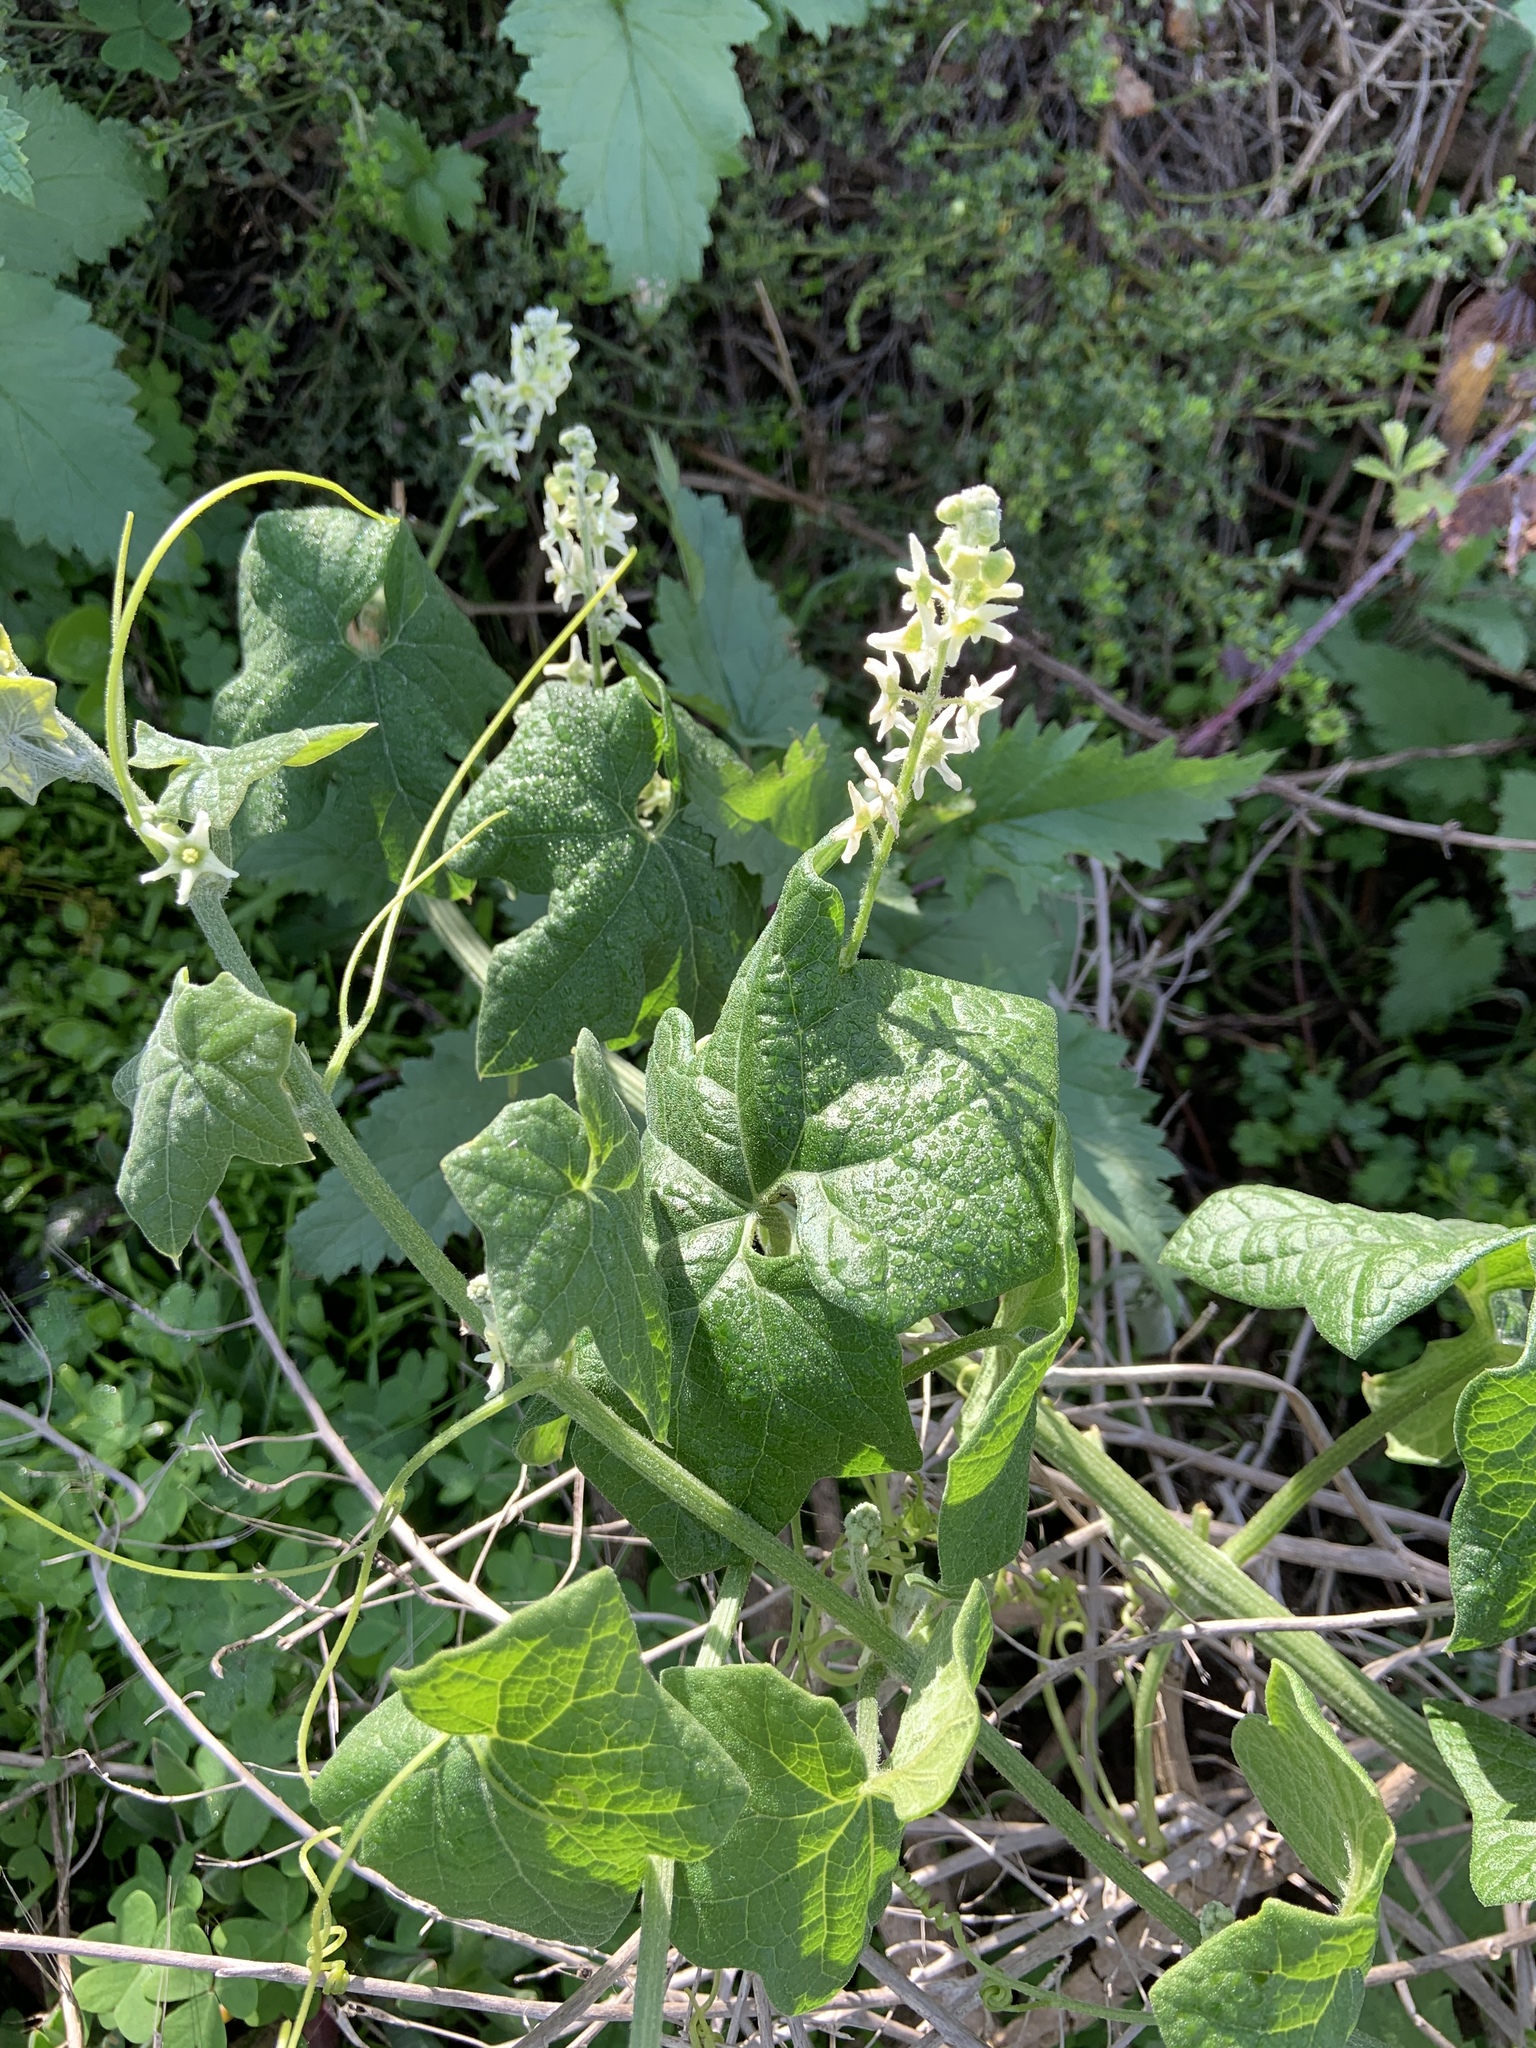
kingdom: Plantae
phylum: Tracheophyta
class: Magnoliopsida
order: Cucurbitales
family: Cucurbitaceae
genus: Marah
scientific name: Marah fabacea
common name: California manroot
